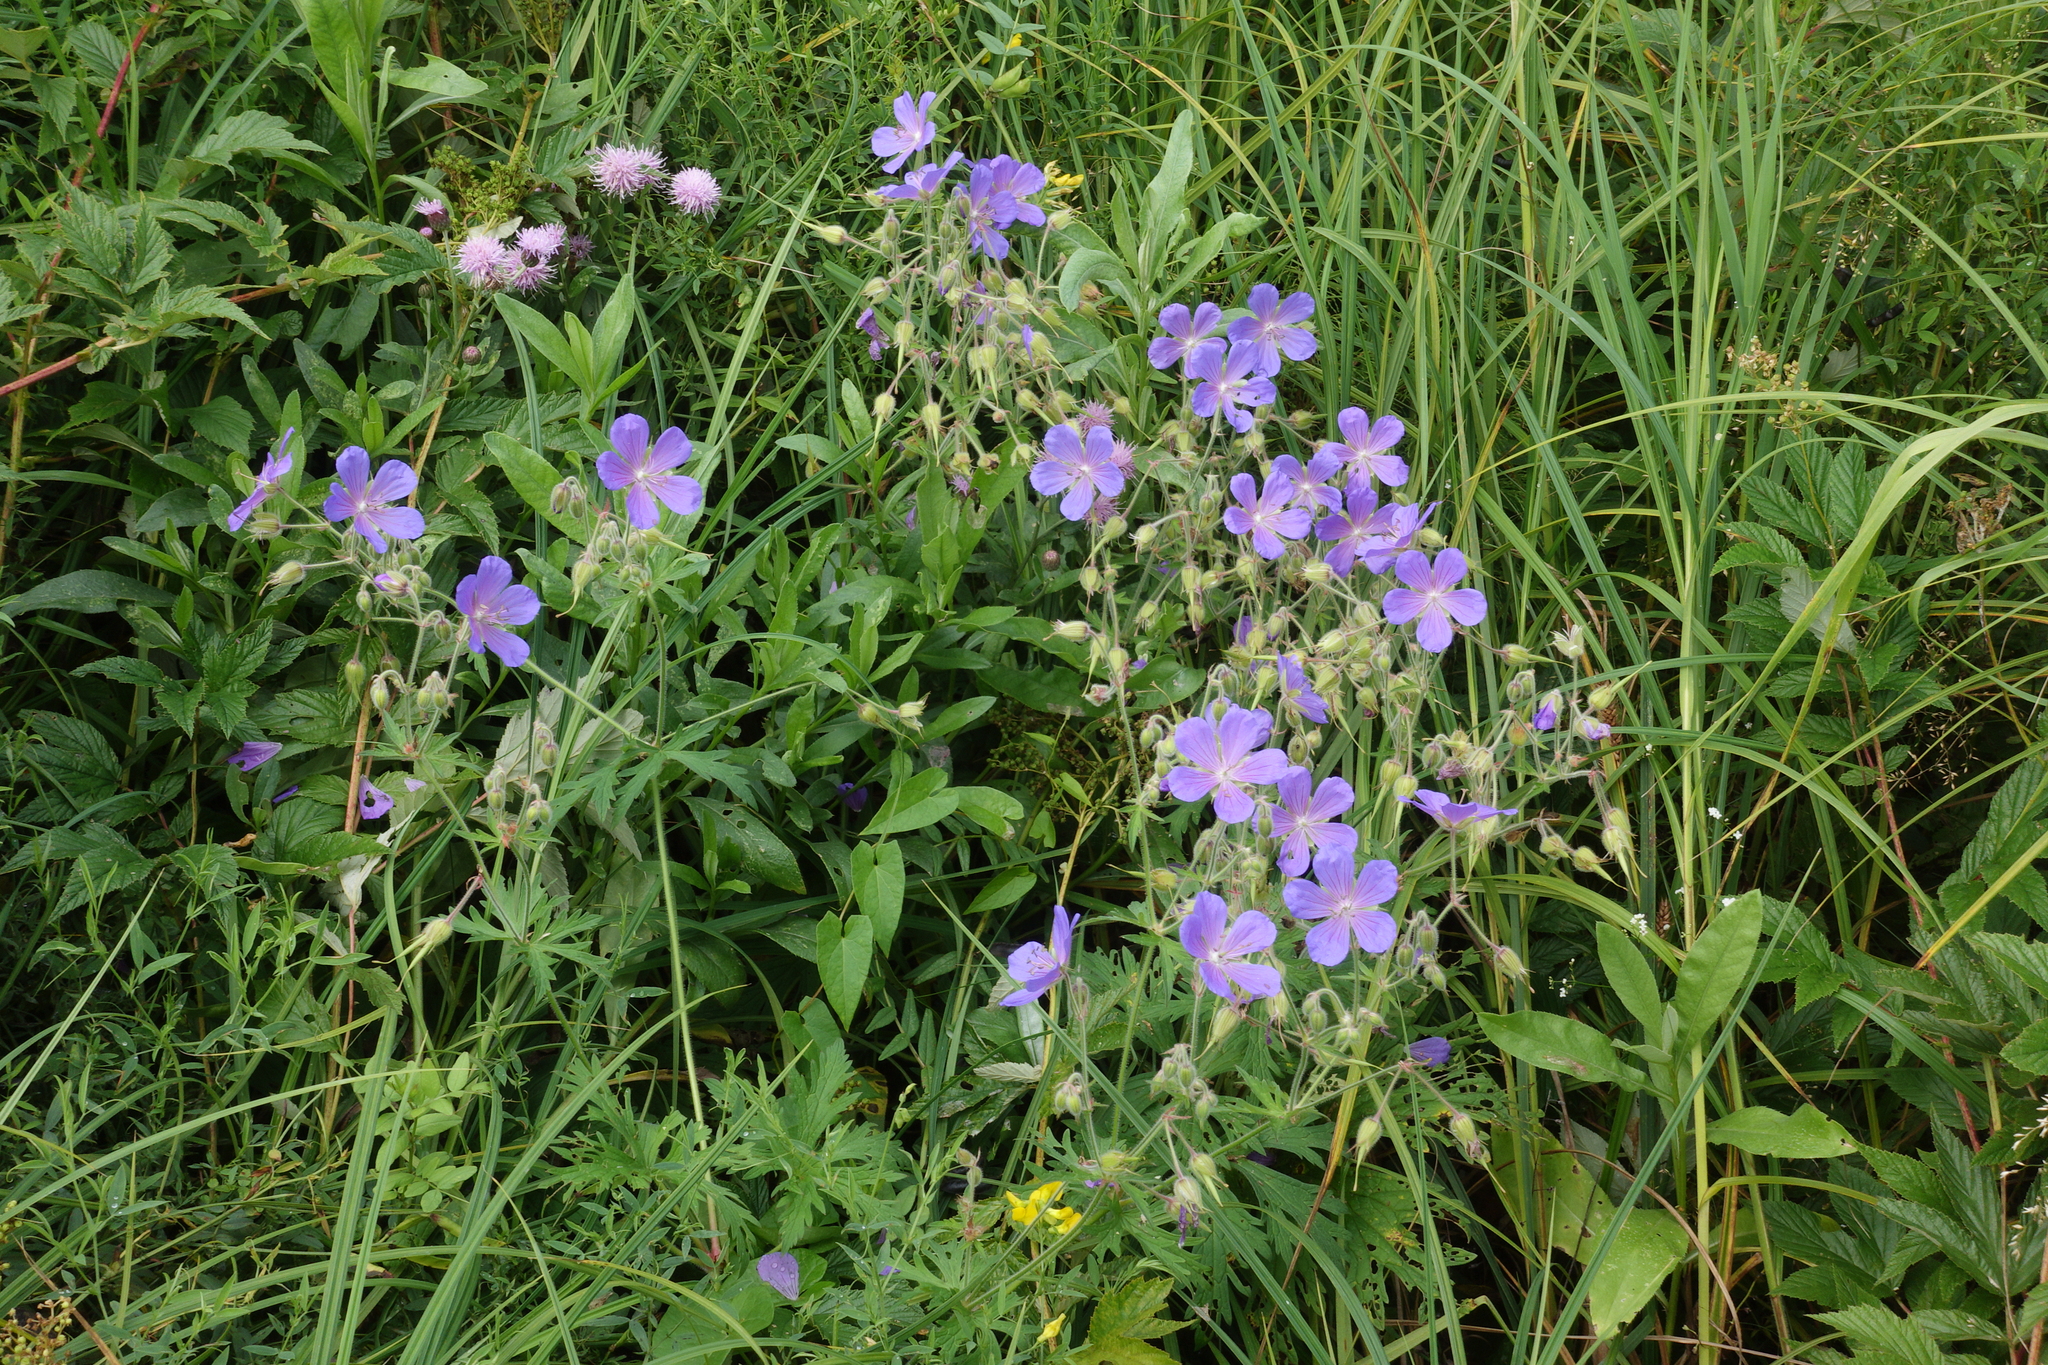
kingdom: Plantae
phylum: Tracheophyta
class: Magnoliopsida
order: Geraniales
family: Geraniaceae
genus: Geranium
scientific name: Geranium pratense
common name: Meadow crane's-bill
